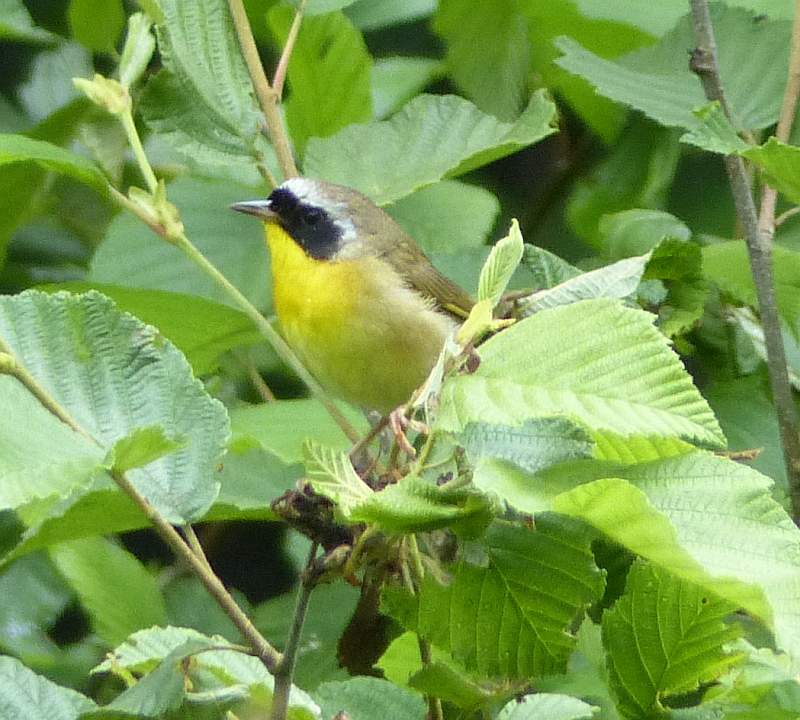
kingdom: Animalia
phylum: Chordata
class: Aves
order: Passeriformes
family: Parulidae
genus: Geothlypis
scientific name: Geothlypis trichas
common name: Common yellowthroat
